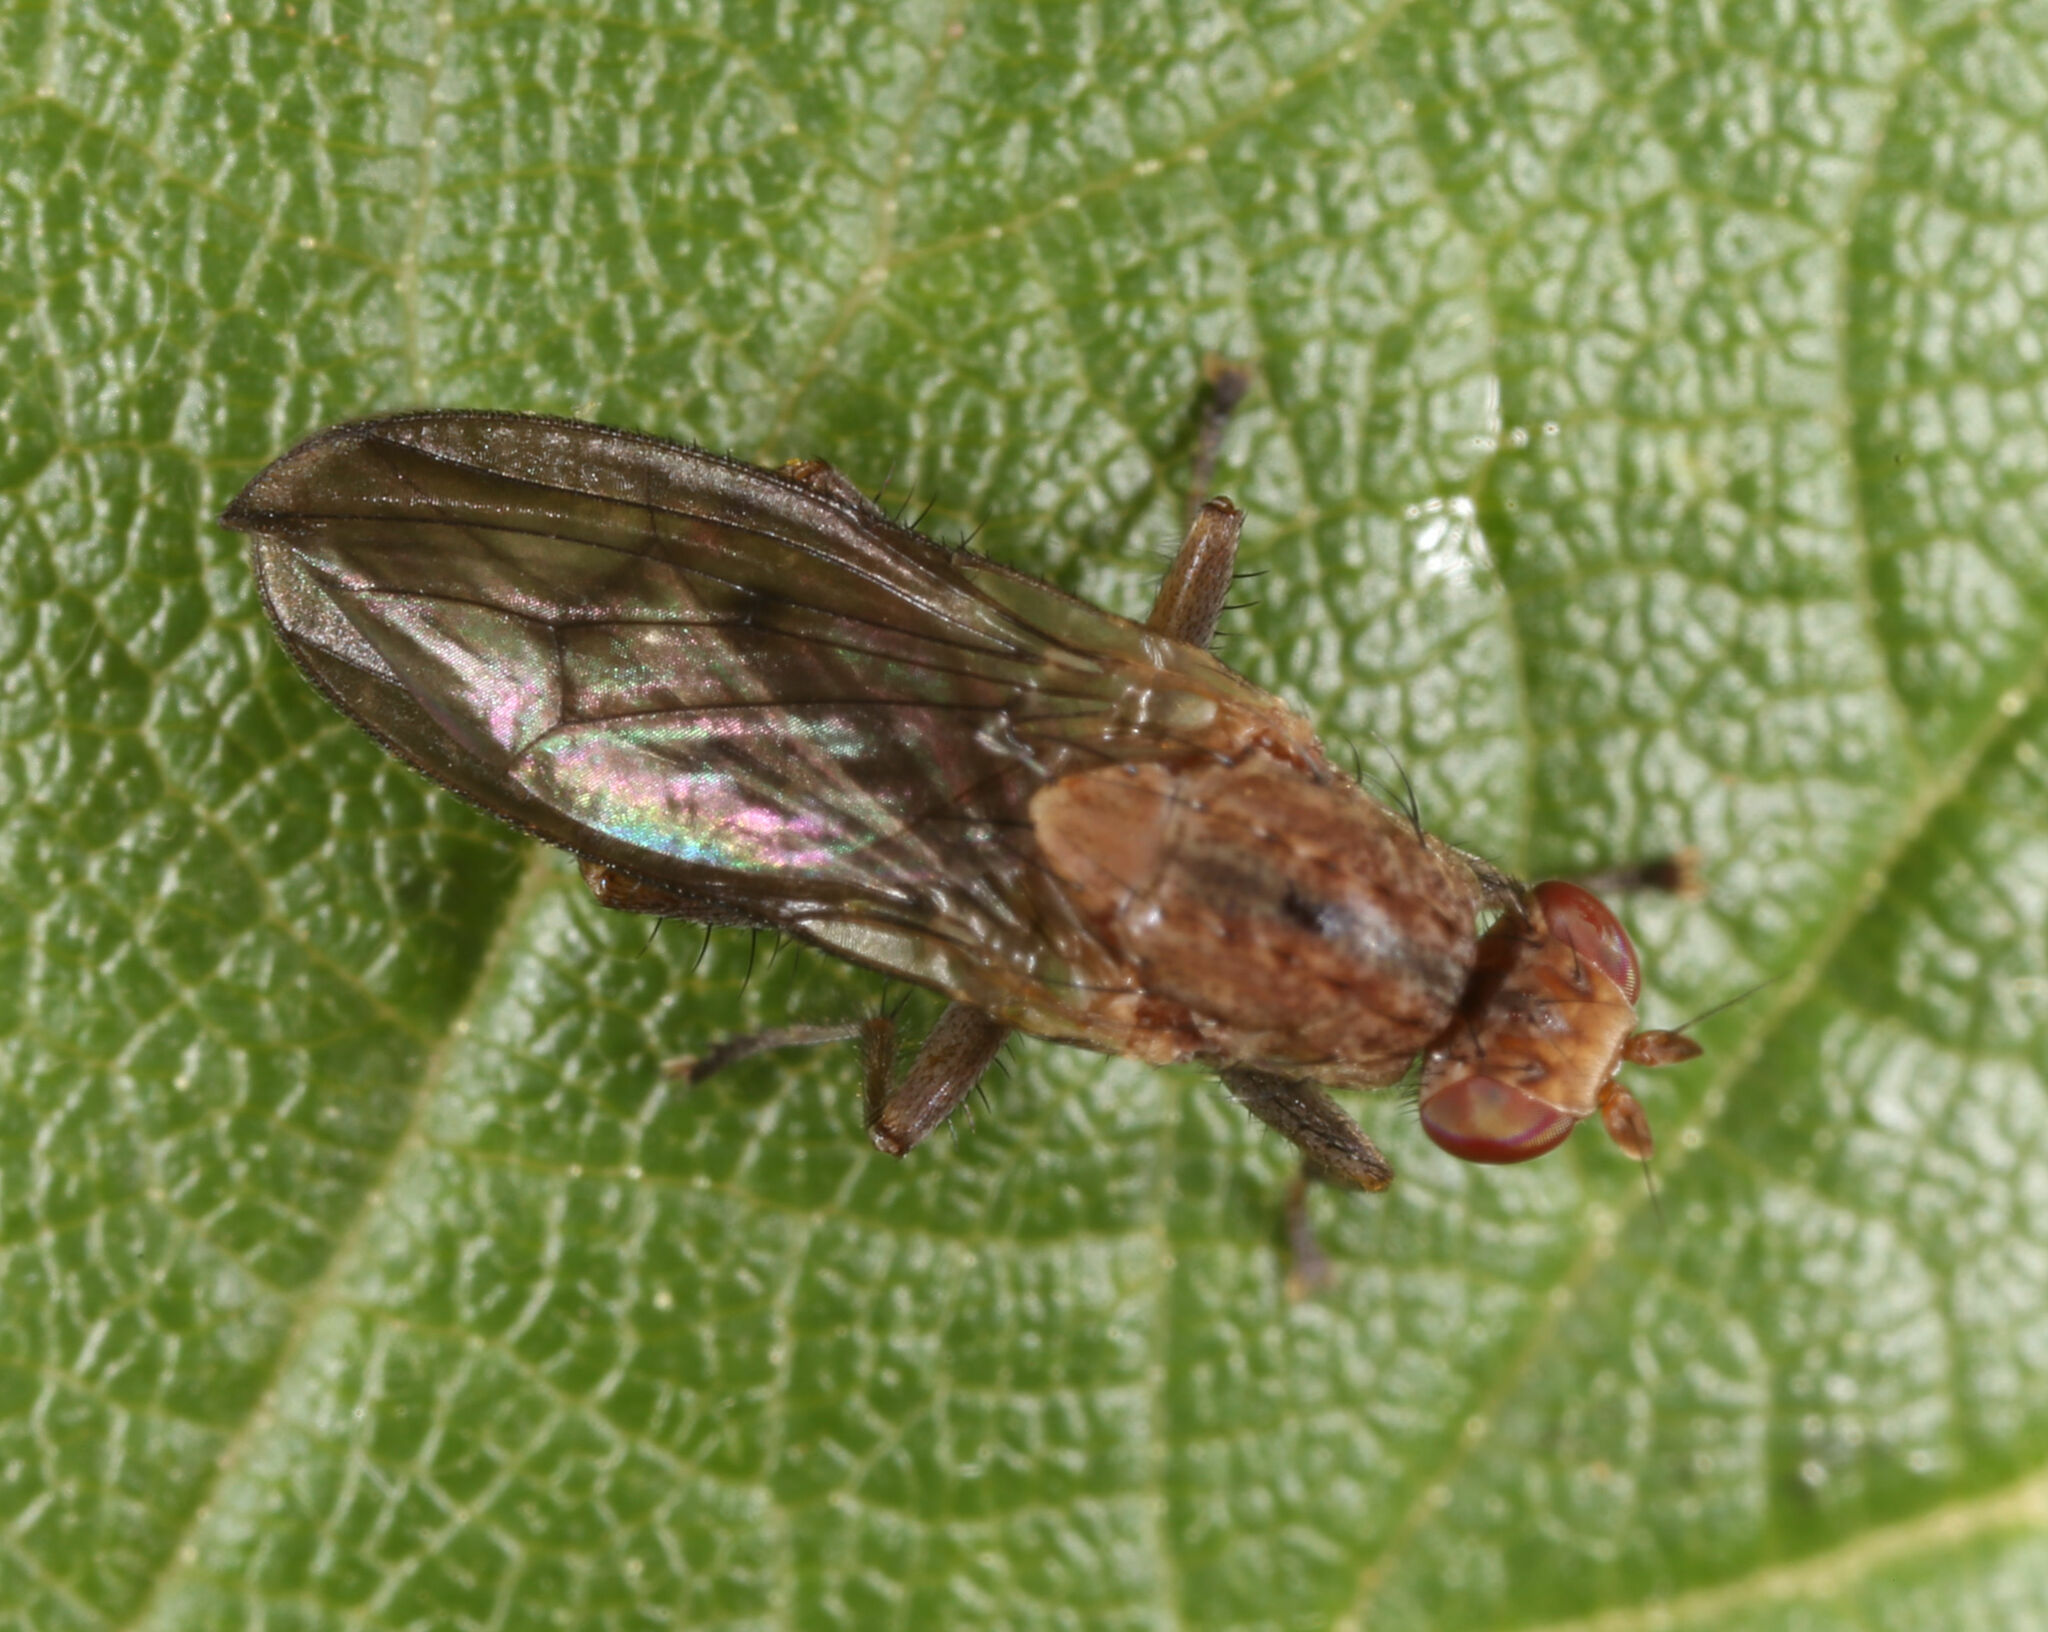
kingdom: Animalia
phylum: Arthropoda
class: Insecta
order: Diptera
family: Heleomyzidae
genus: Suillia
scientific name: Suillia barberi
